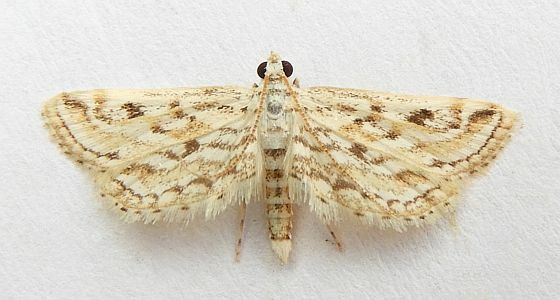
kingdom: Animalia
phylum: Arthropoda
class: Insecta
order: Lepidoptera
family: Crambidae
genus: Parapoynx
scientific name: Parapoynx allionealis
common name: Bladderwort casemaker
